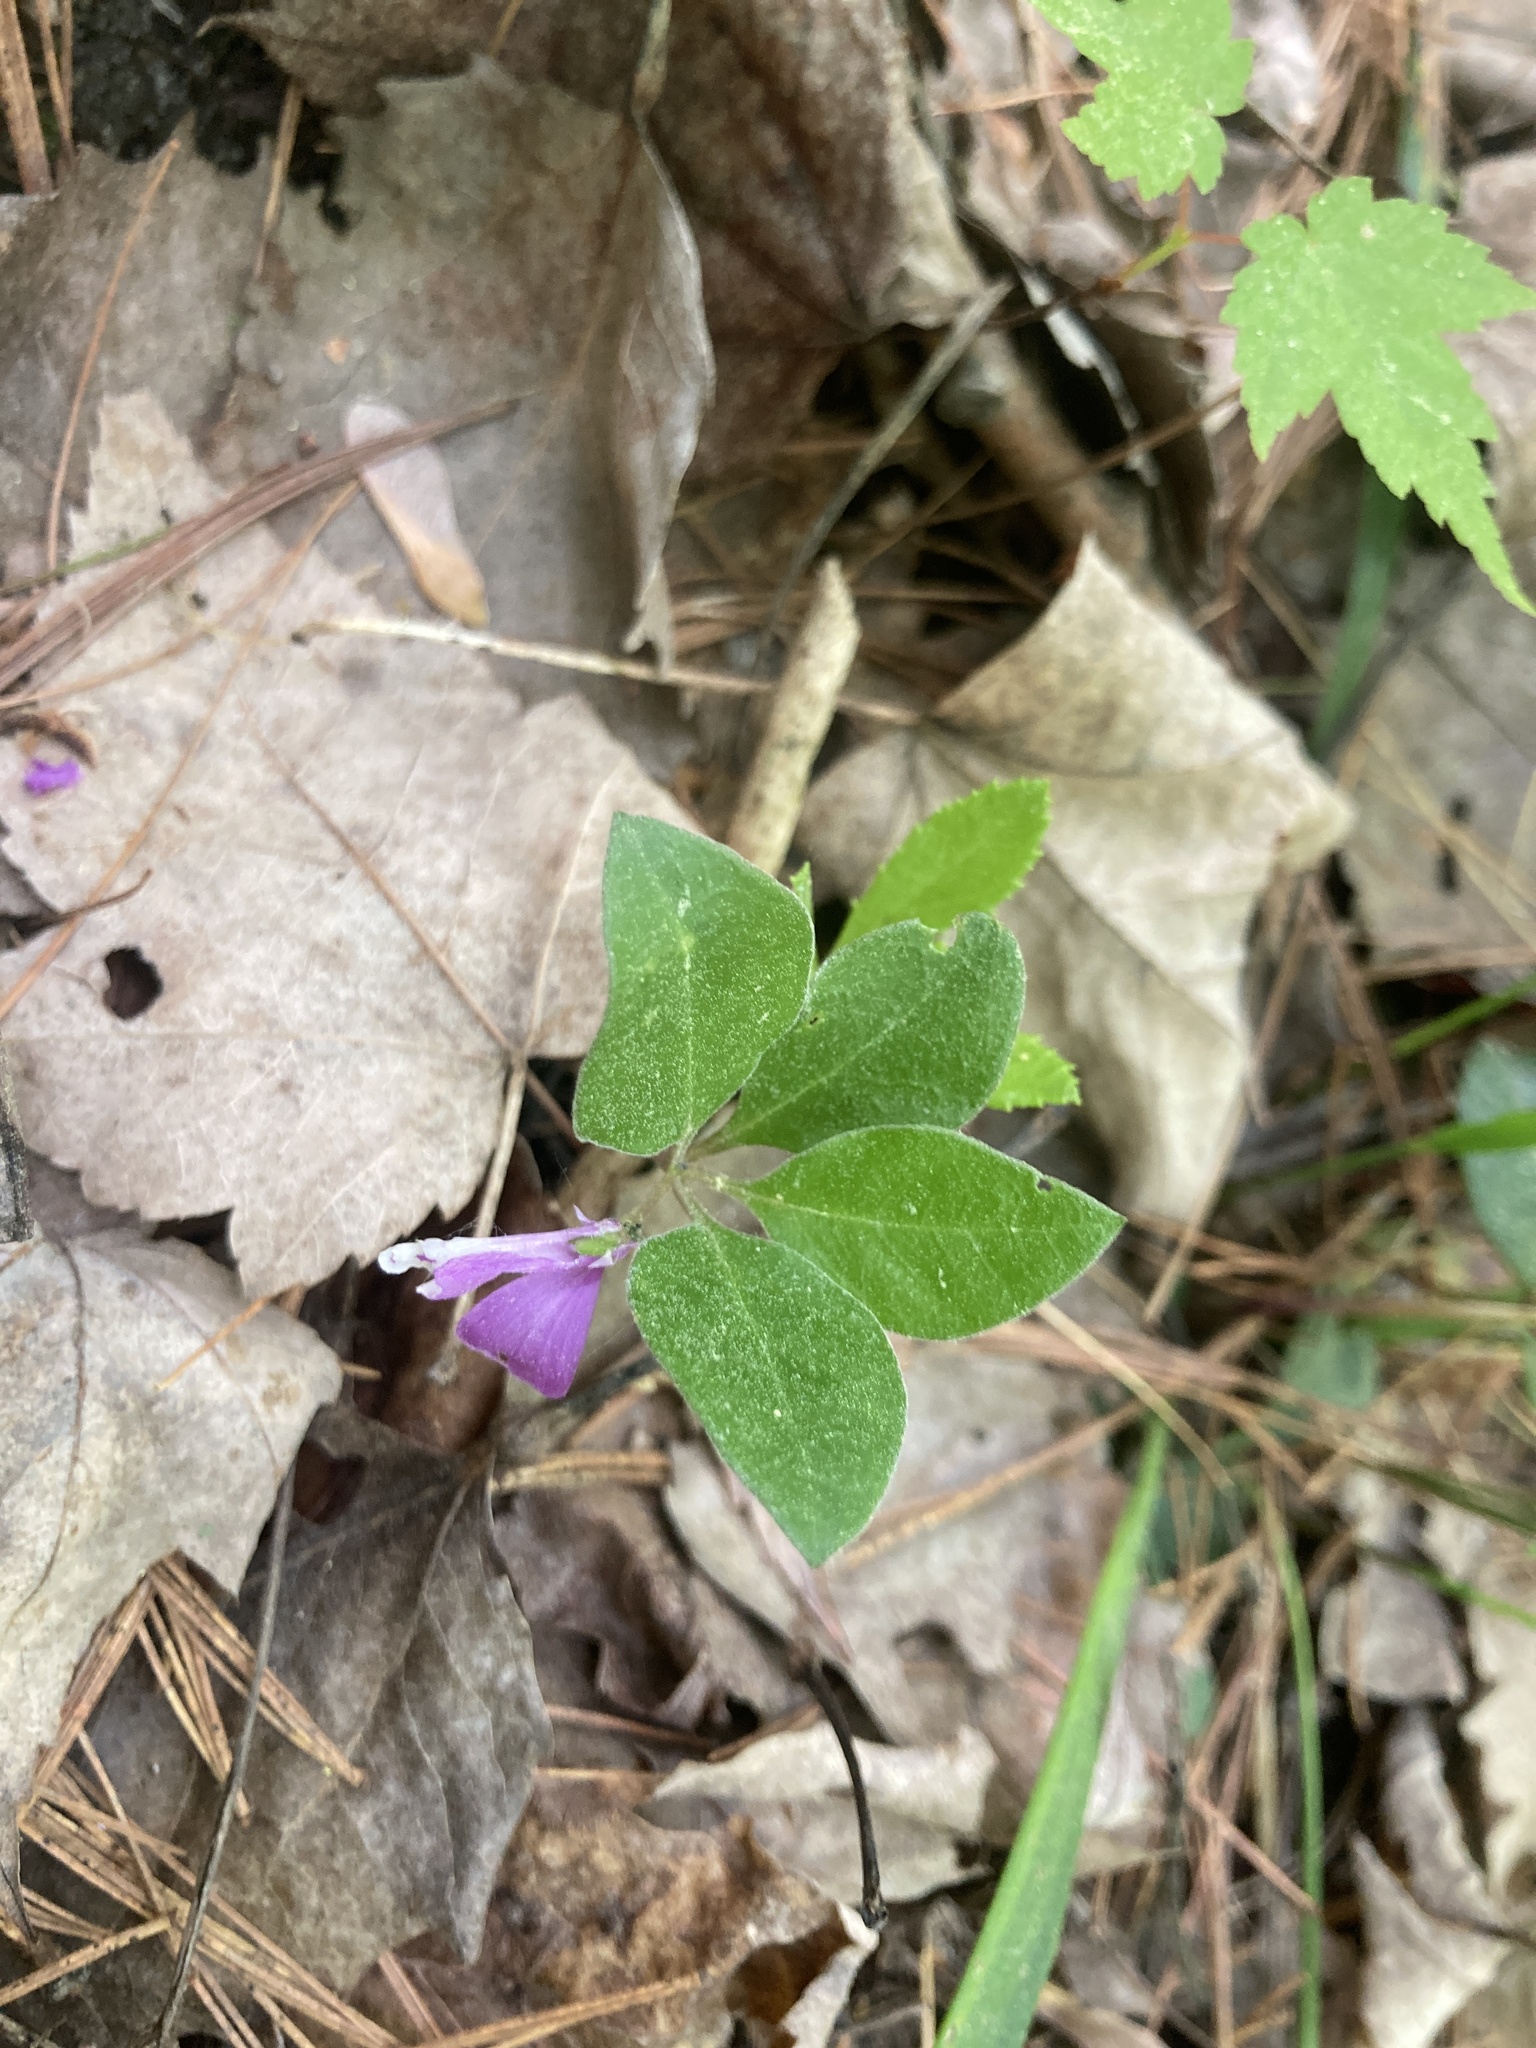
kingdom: Plantae
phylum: Tracheophyta
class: Magnoliopsida
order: Fabales
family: Polygalaceae
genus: Polygaloides
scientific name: Polygaloides paucifolia
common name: Bird-on-the-wing
